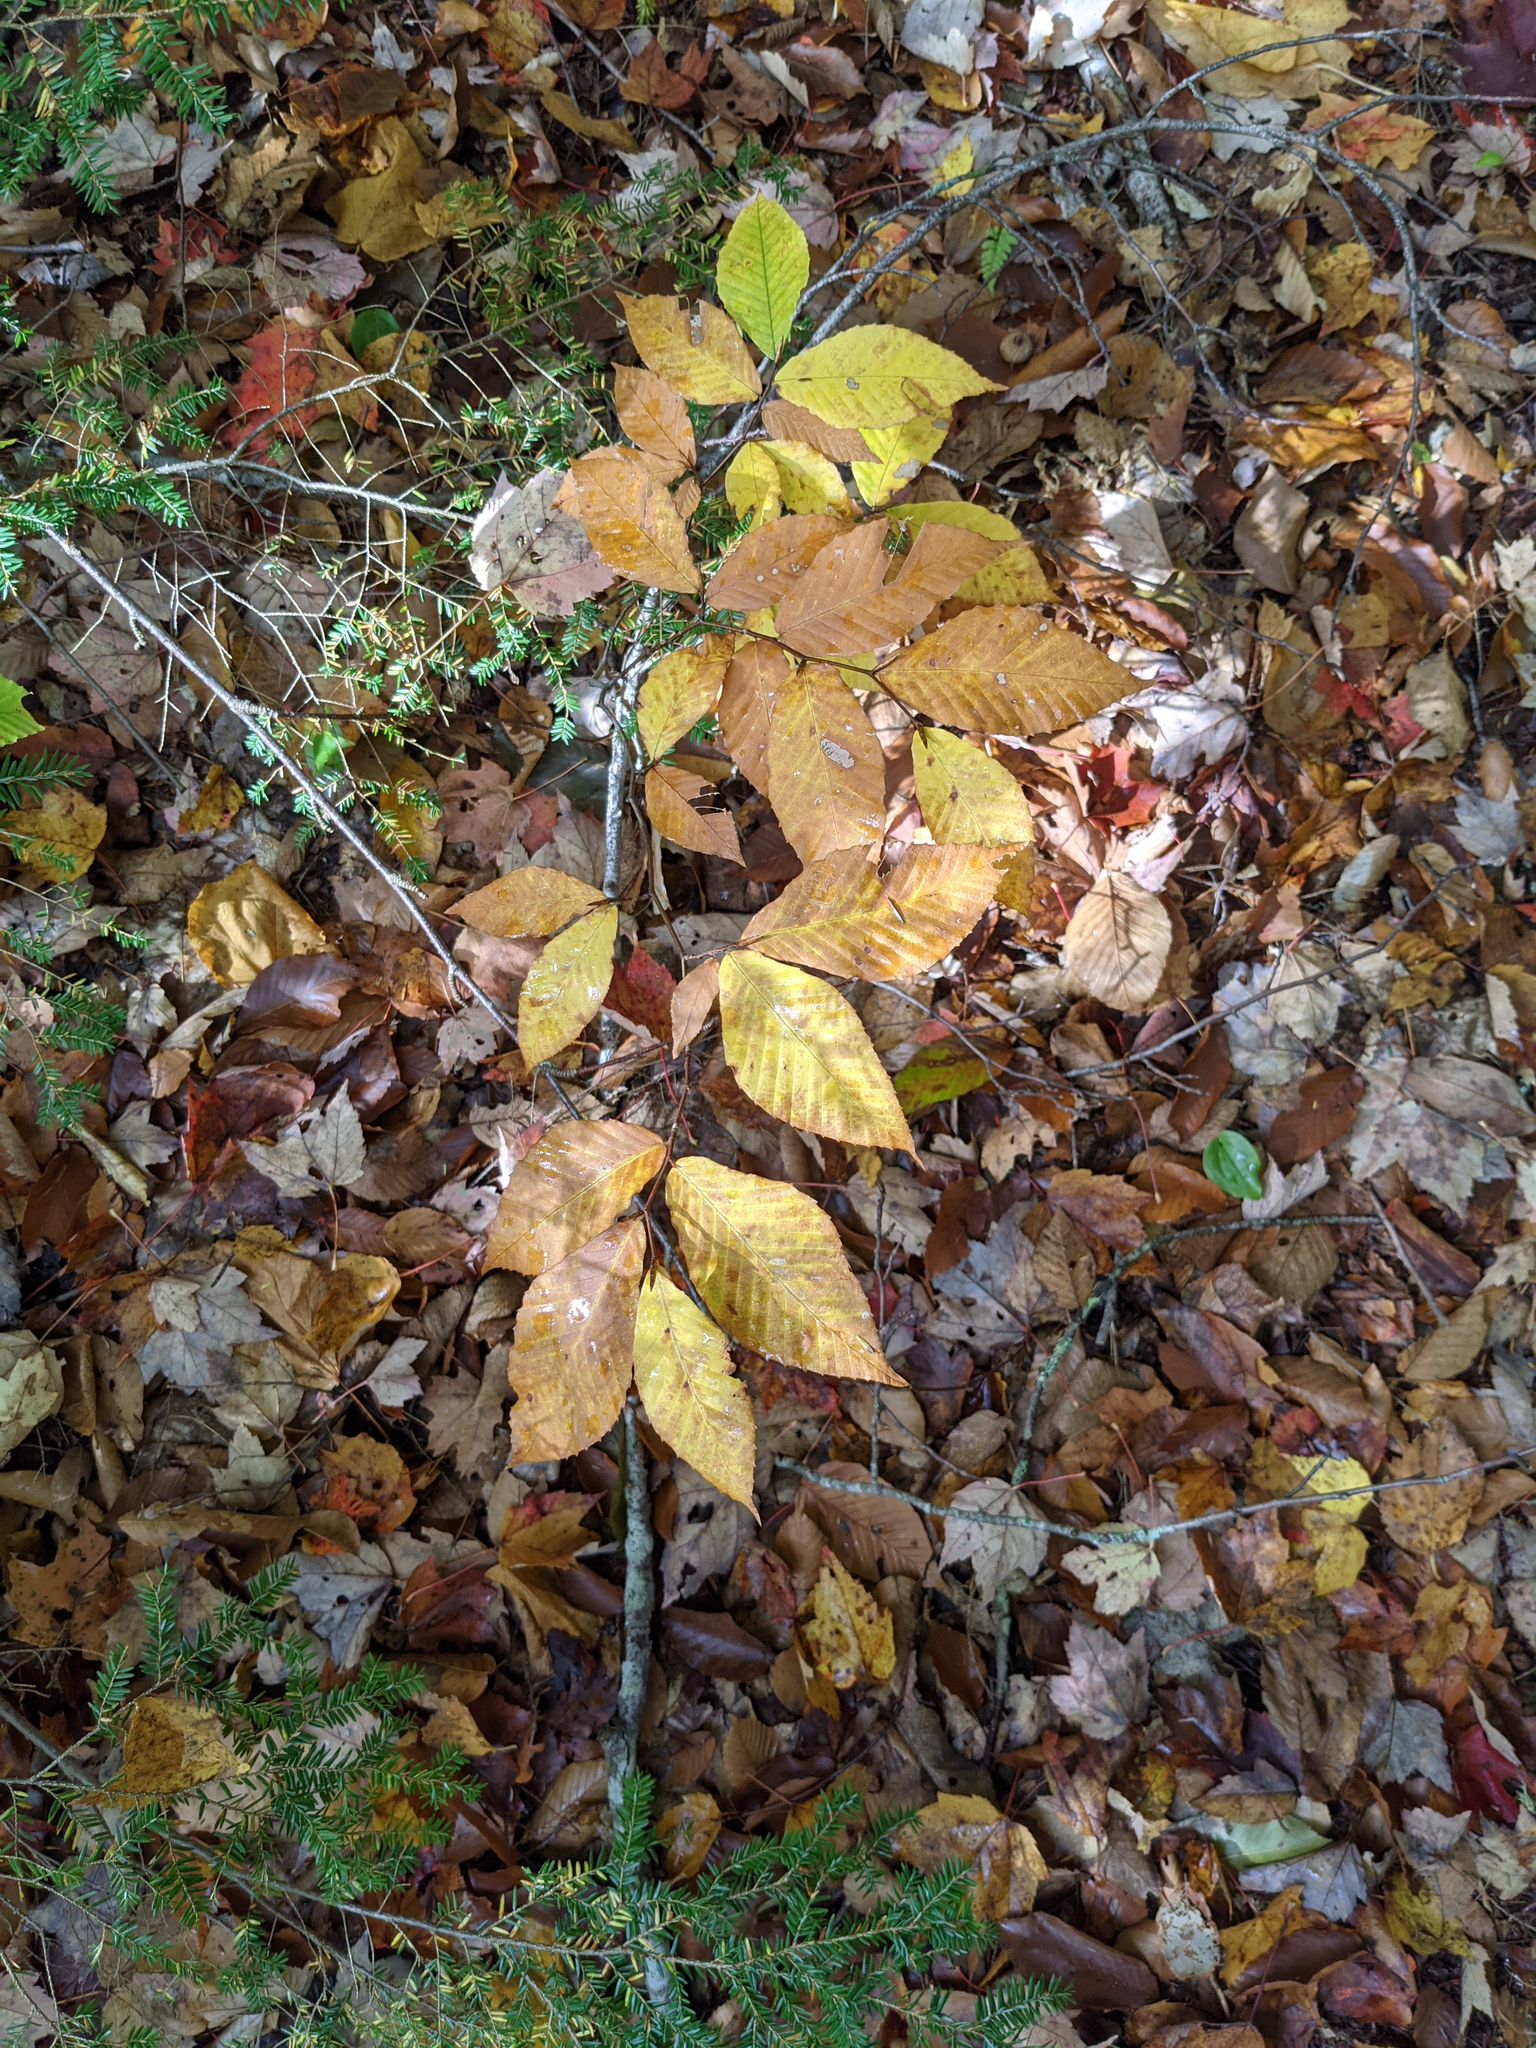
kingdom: Plantae
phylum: Tracheophyta
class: Magnoliopsida
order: Fagales
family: Fagaceae
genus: Fagus
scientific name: Fagus grandifolia
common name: American beech
